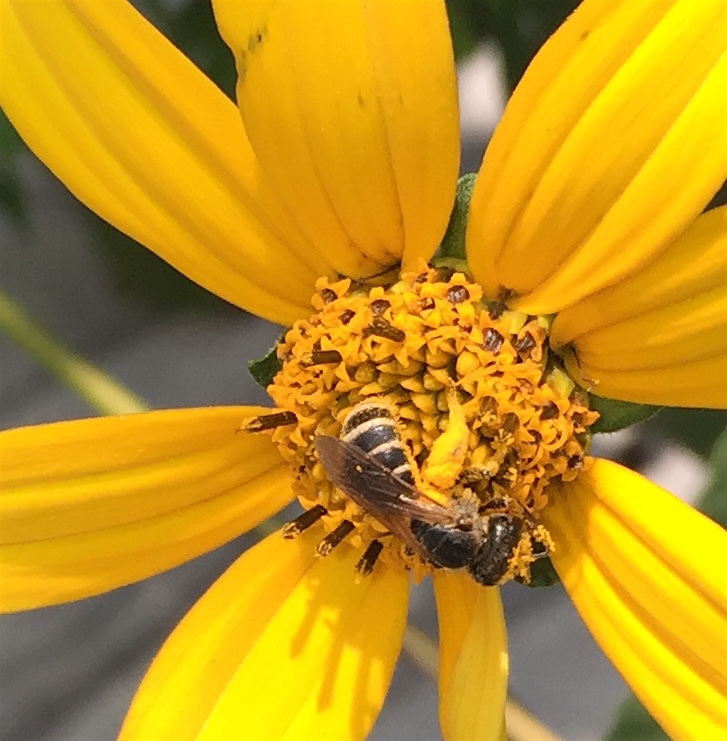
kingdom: Animalia
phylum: Arthropoda
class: Insecta
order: Hymenoptera
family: Halictidae
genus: Halictus
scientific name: Halictus ligatus
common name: Ligated furrow bee
